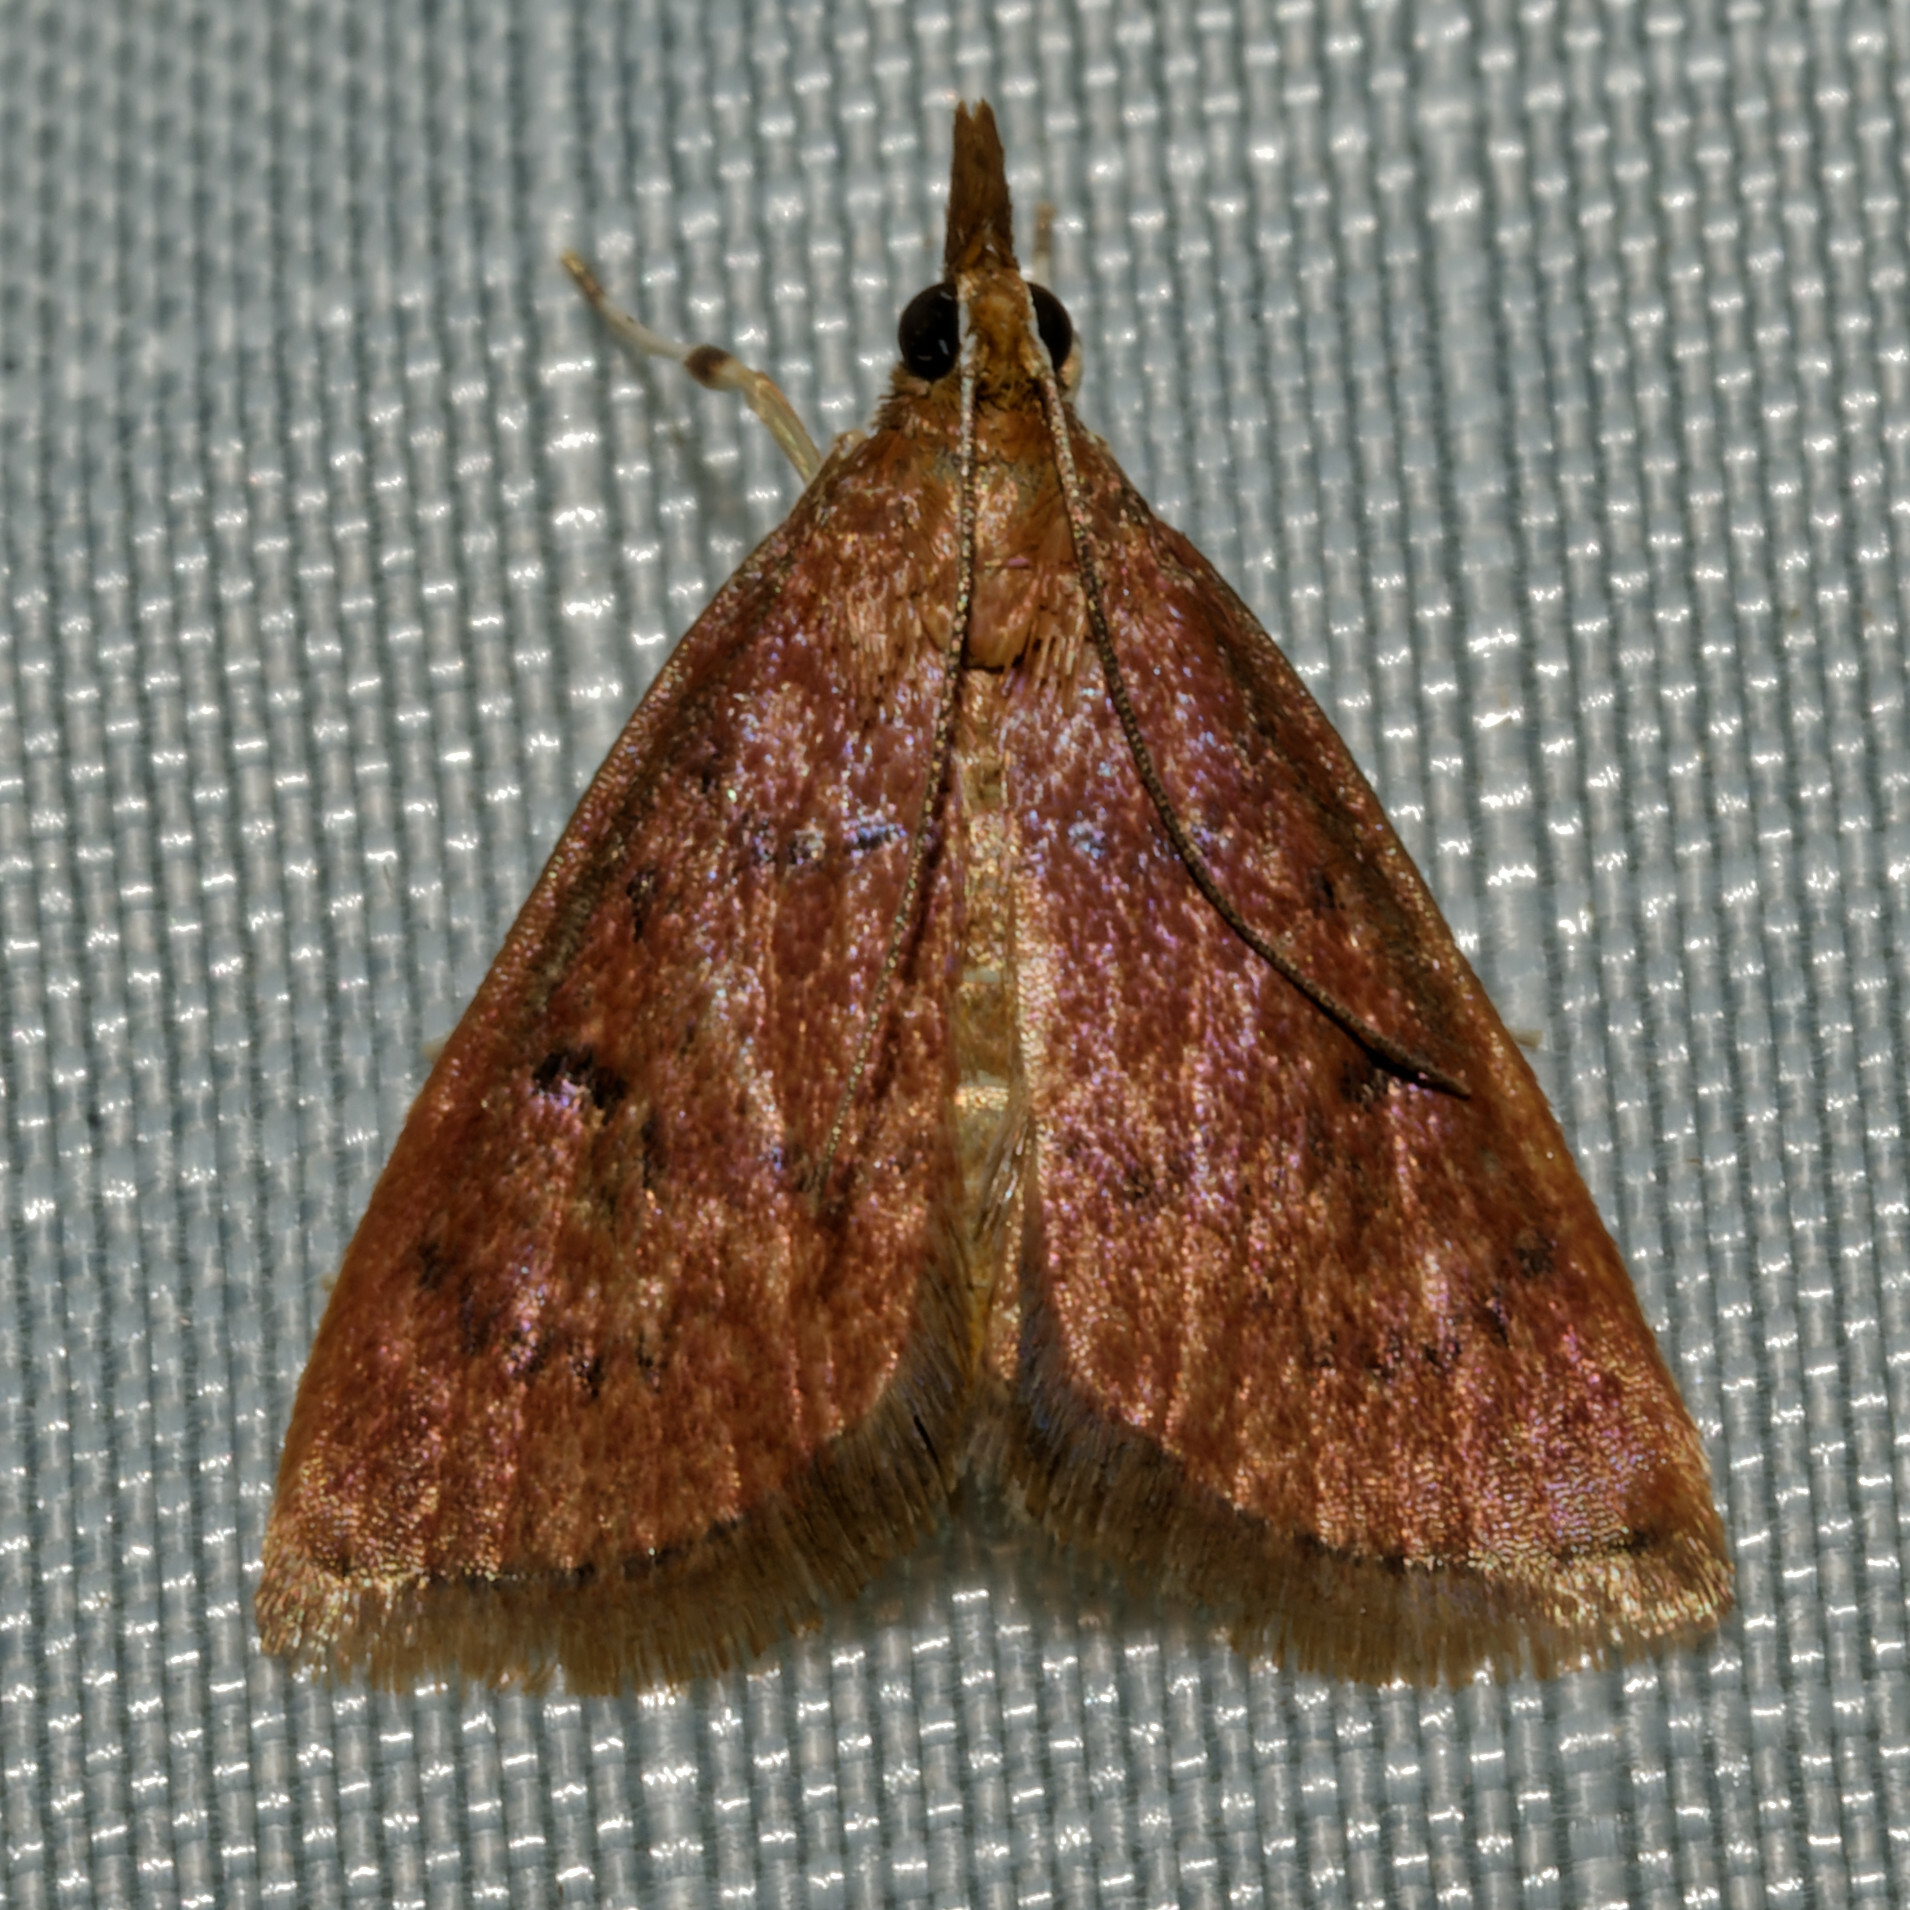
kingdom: Animalia
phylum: Arthropoda
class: Insecta
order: Lepidoptera
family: Crambidae
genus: Oenobotys
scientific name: Oenobotys vinotinctalis
